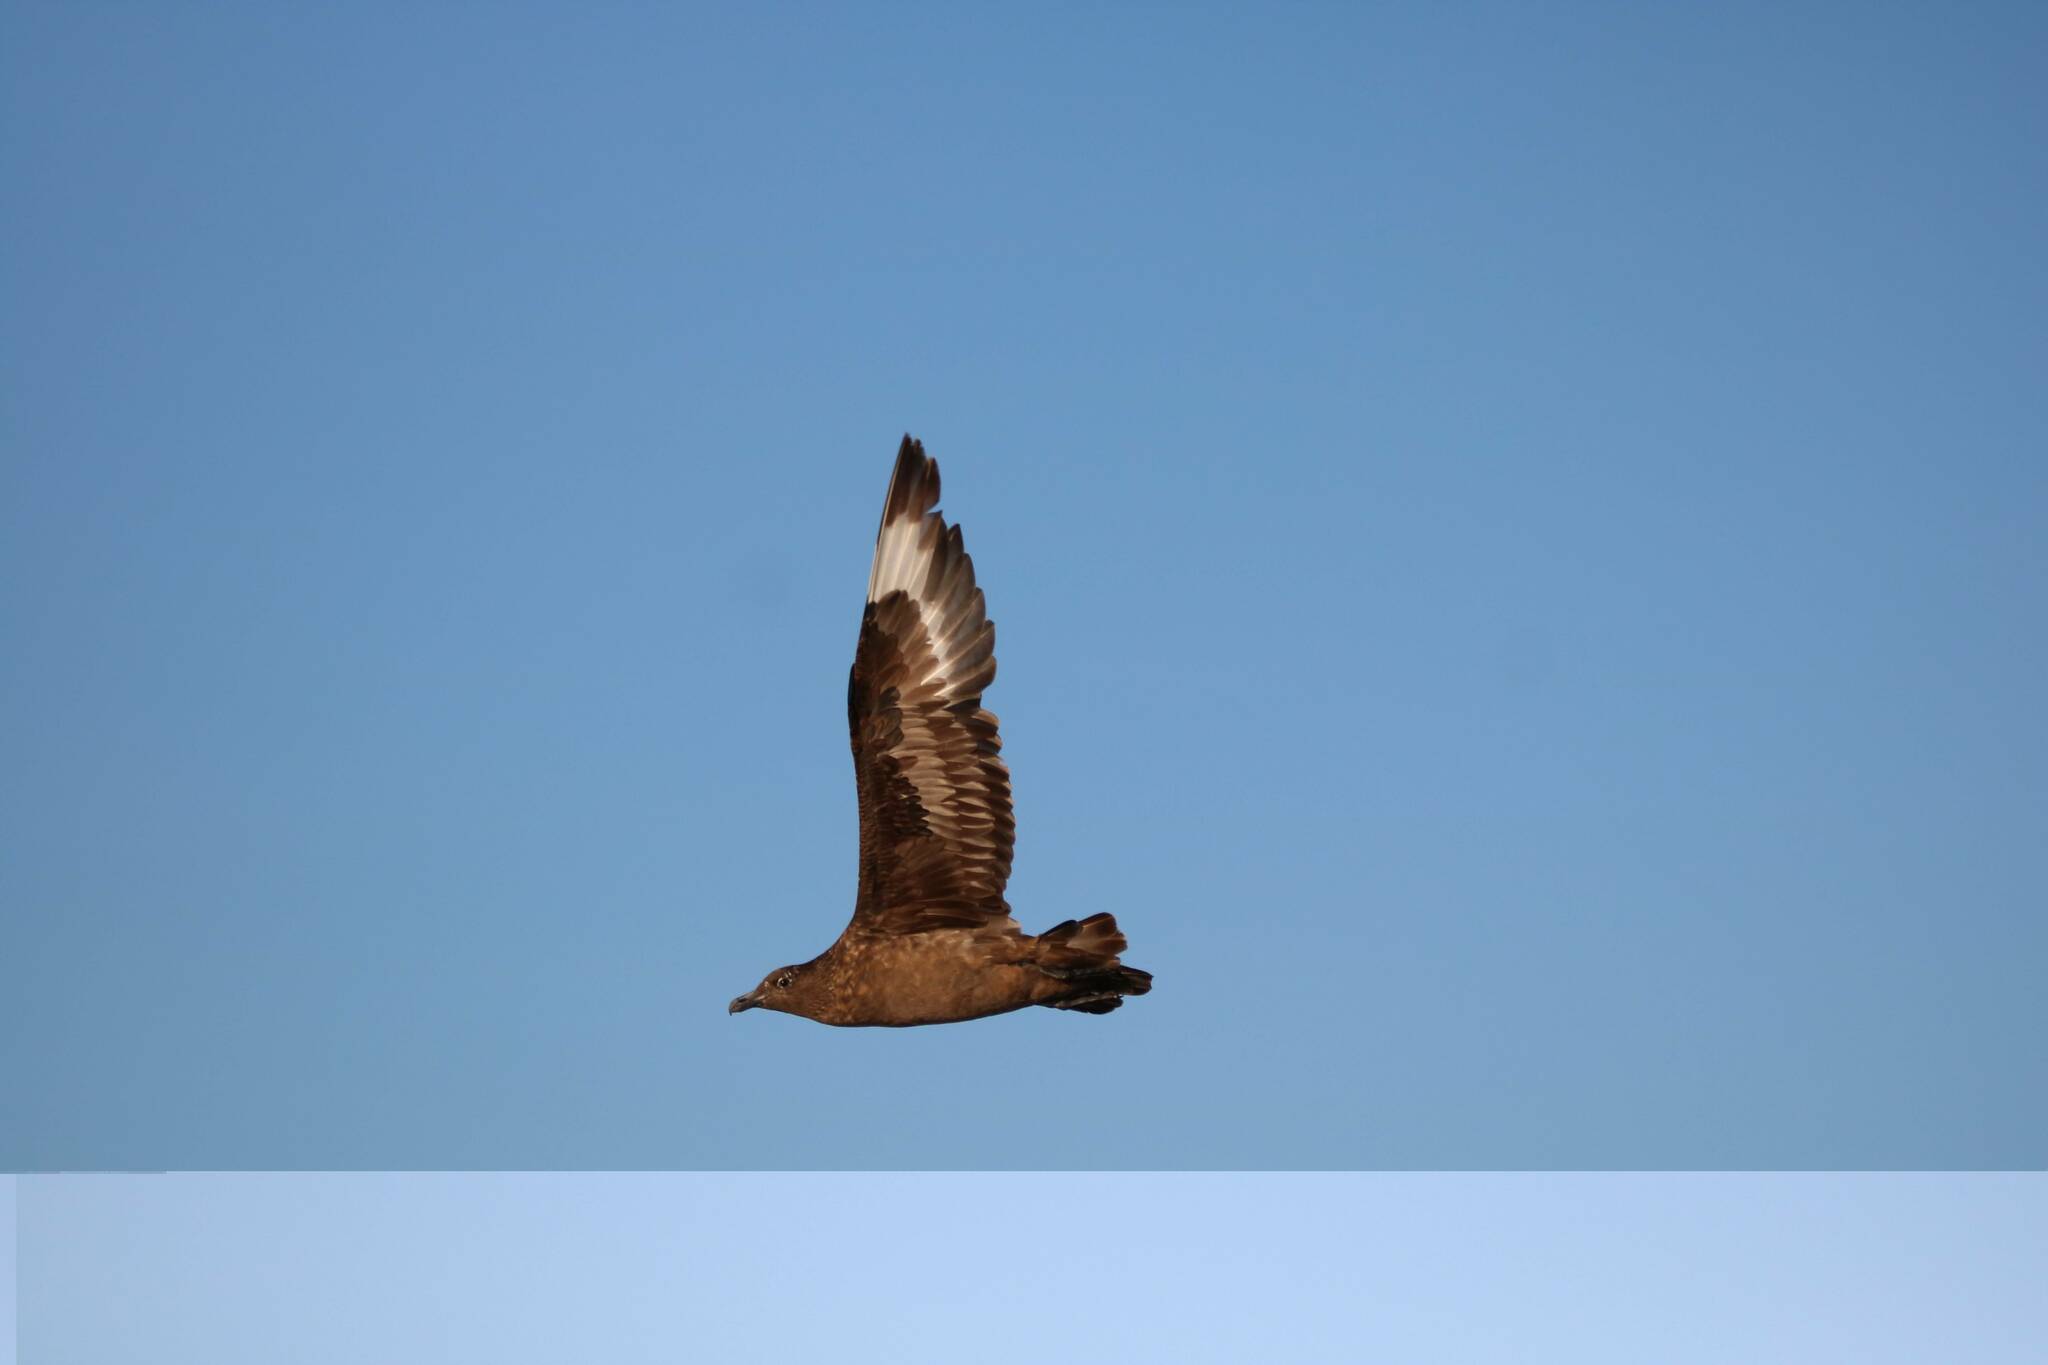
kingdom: Animalia
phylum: Chordata
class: Aves
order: Charadriiformes
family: Stercorariidae
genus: Stercorarius
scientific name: Stercorarius skua
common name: Great skua
